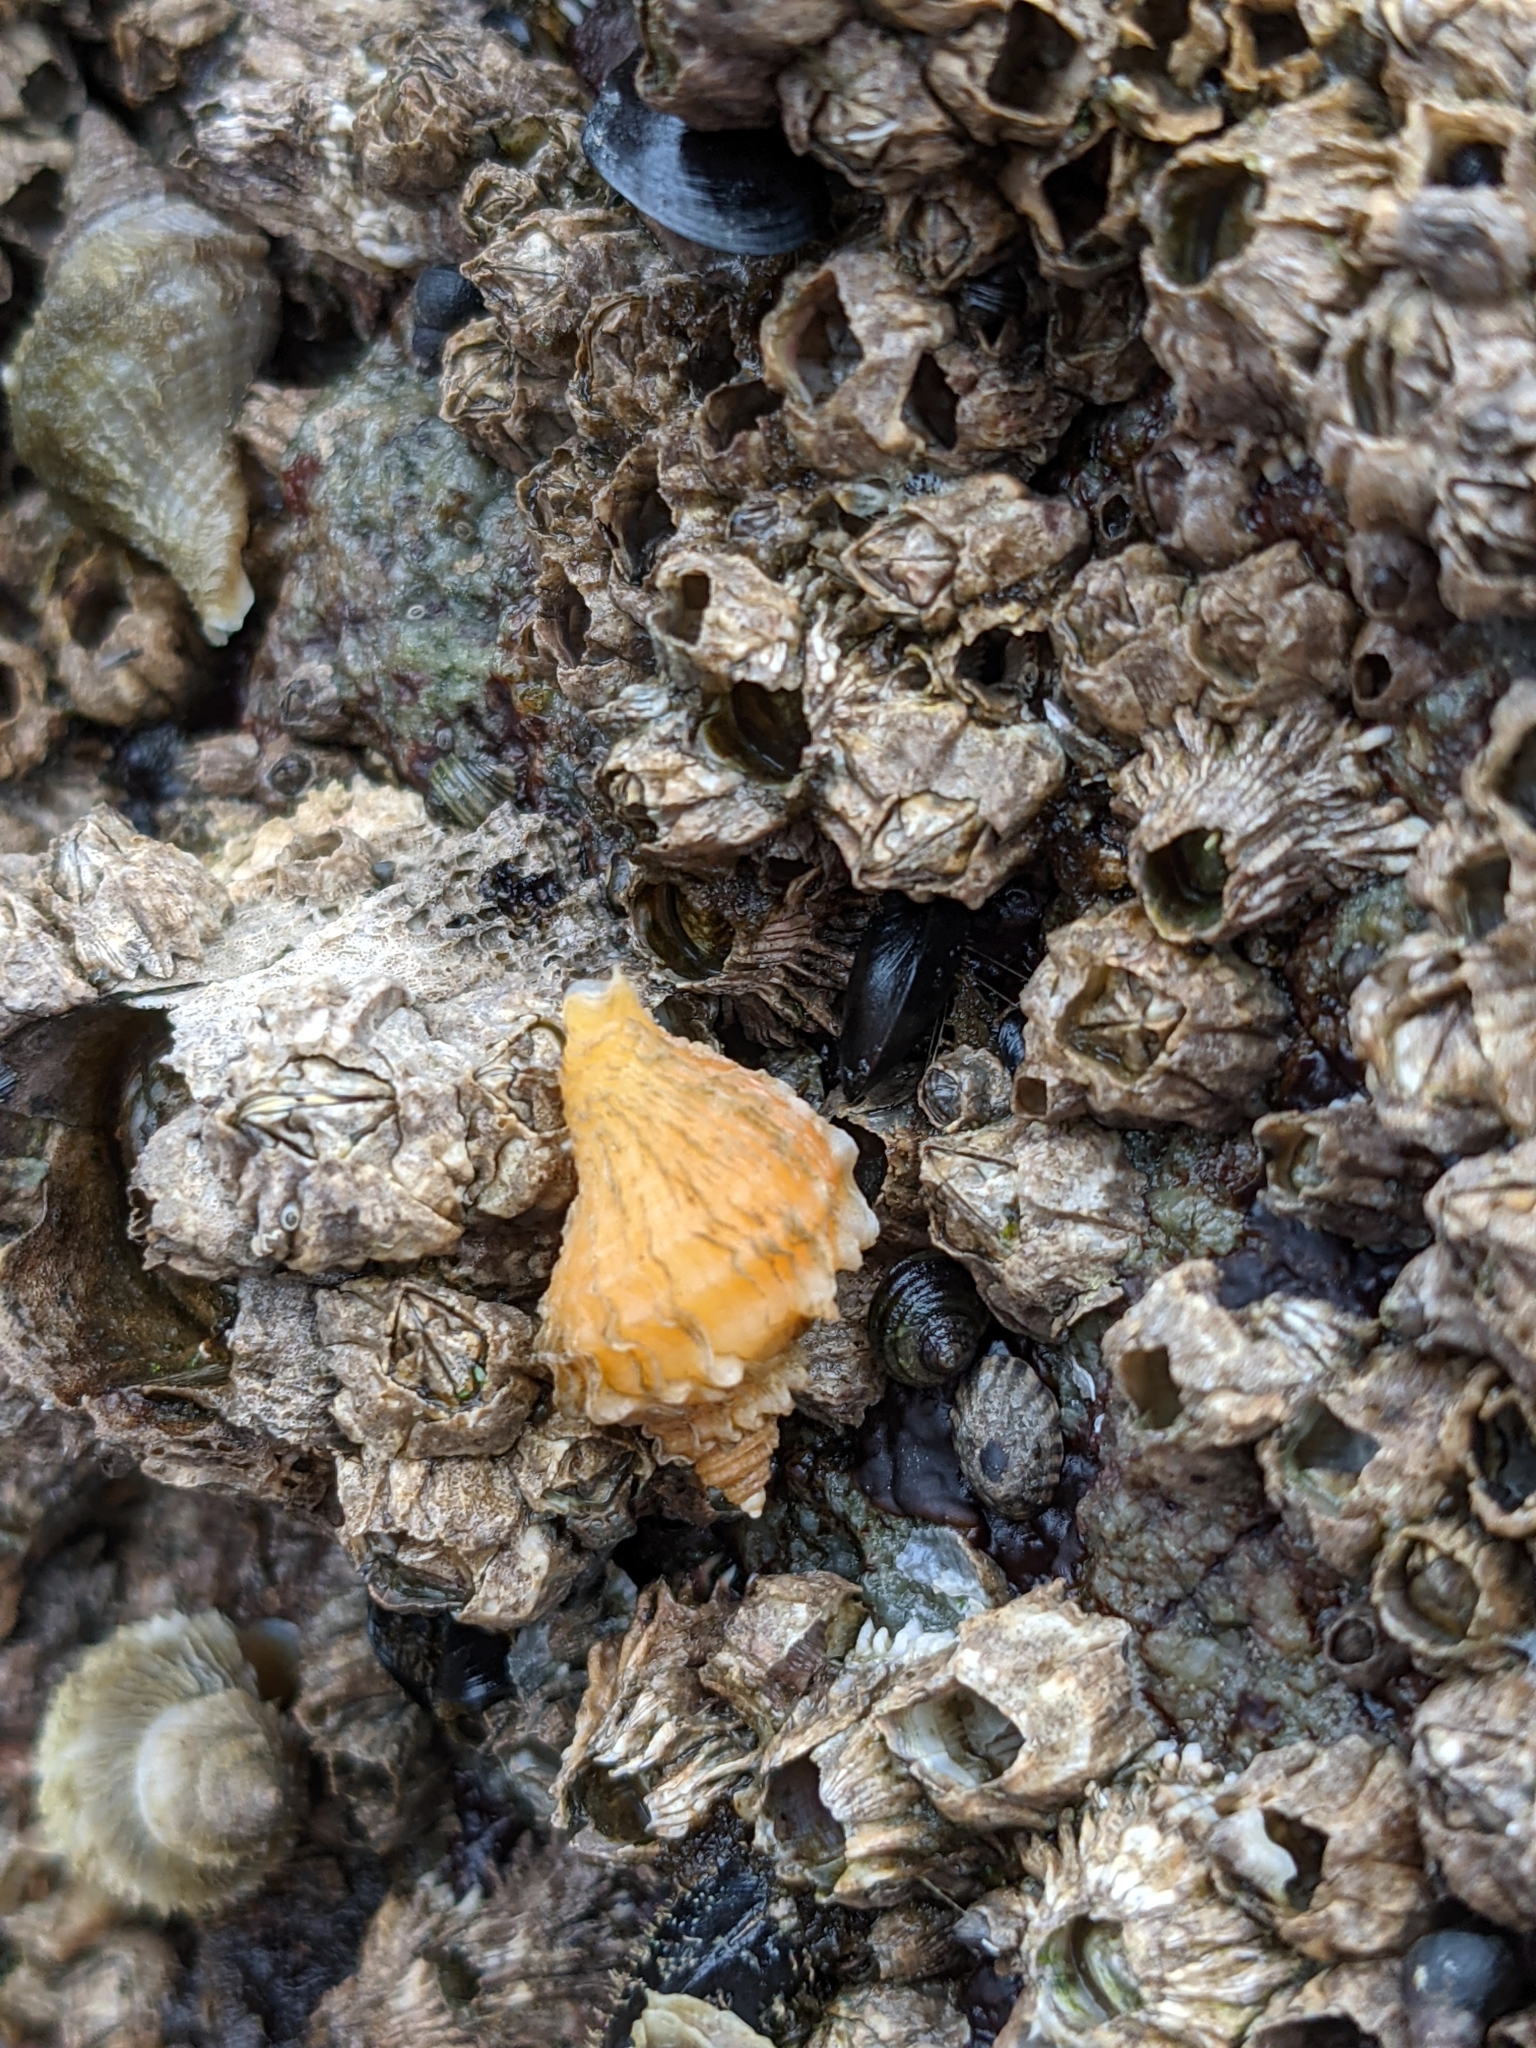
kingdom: Animalia
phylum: Mollusca
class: Gastropoda
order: Neogastropoda
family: Muricidae
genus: Nucella
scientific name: Nucella lamellosa
